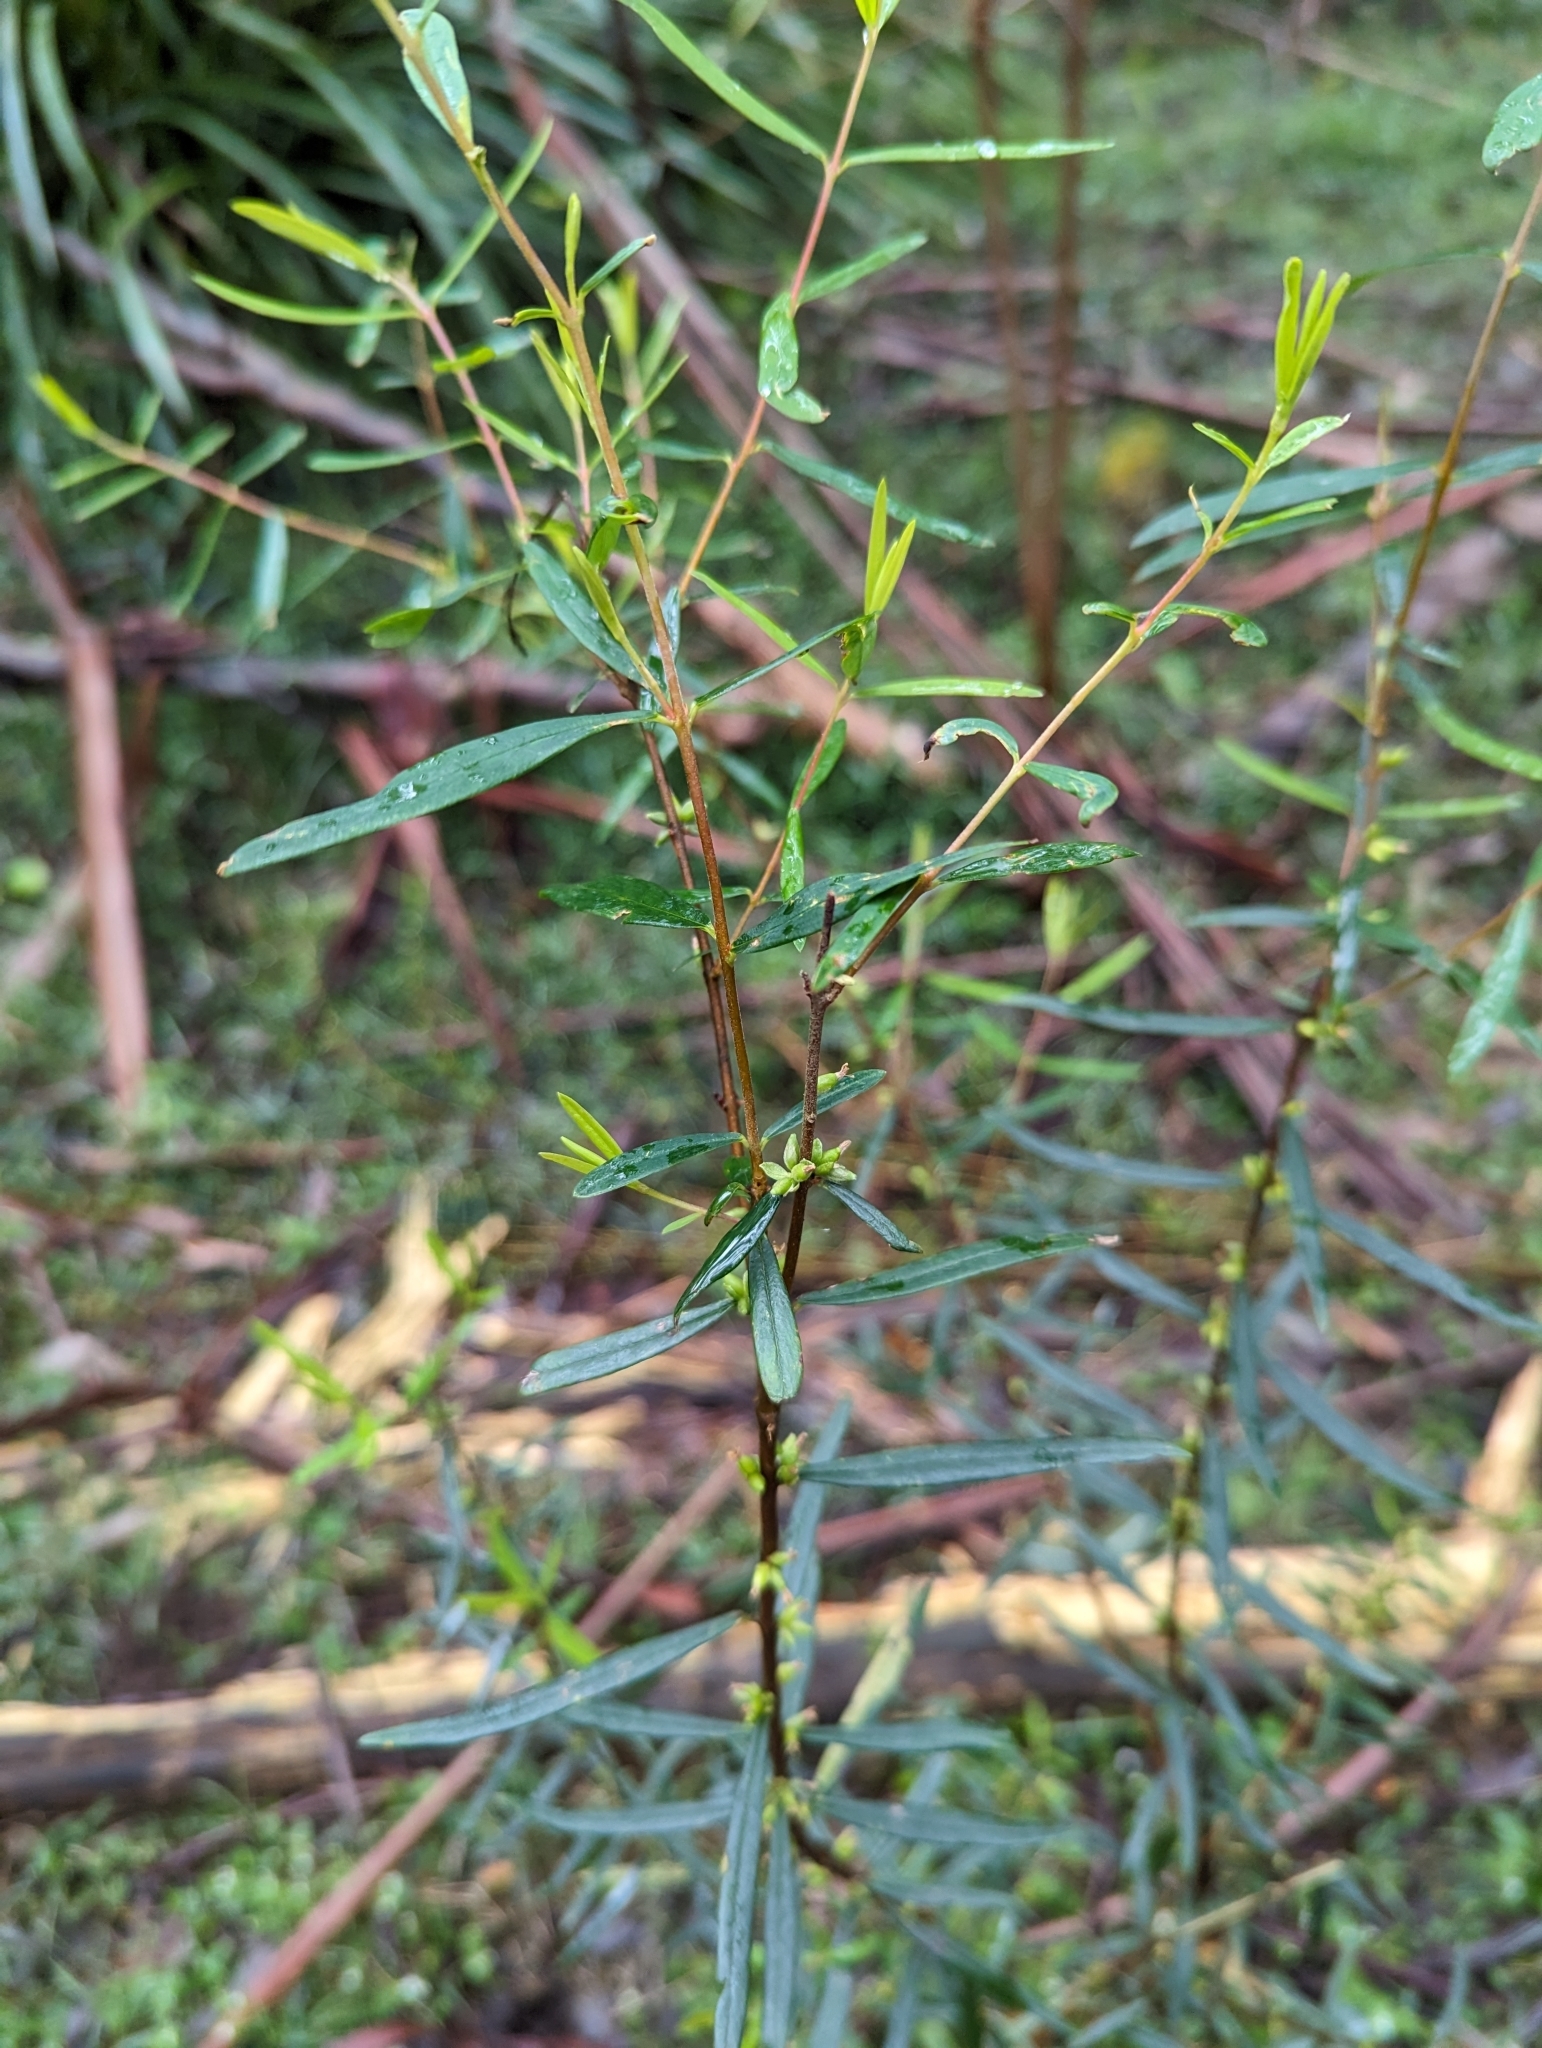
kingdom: Plantae
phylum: Tracheophyta
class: Magnoliopsida
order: Malvales
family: Thymelaeaceae
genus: Pimelea
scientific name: Pimelea axiflora
